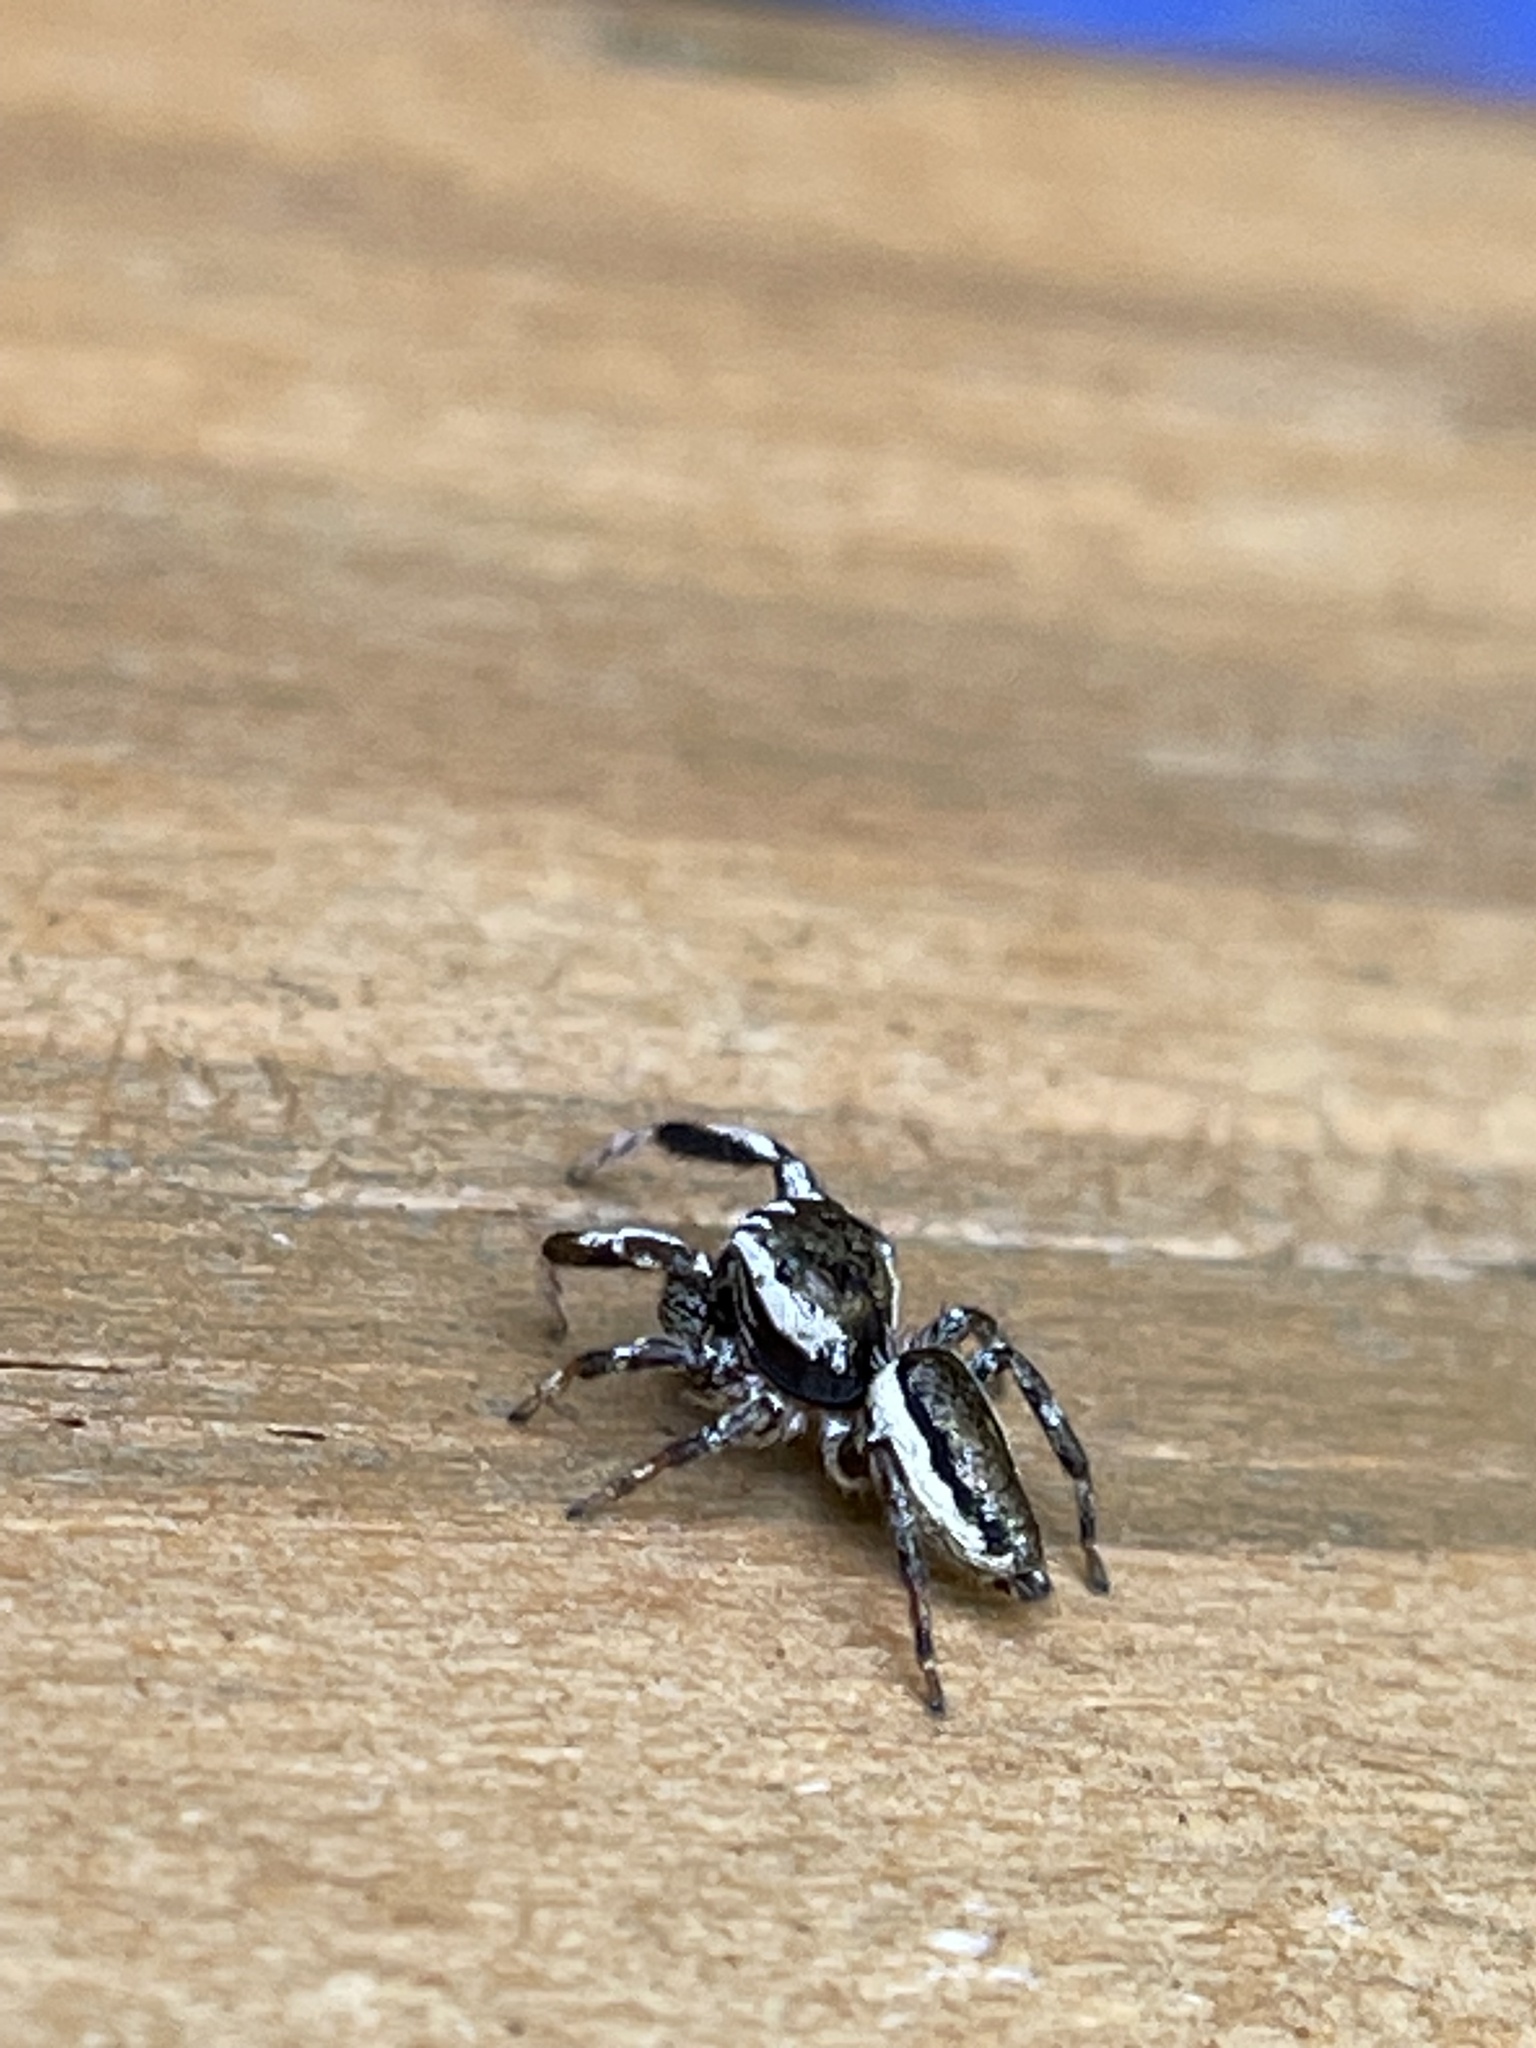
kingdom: Animalia
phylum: Arthropoda
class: Arachnida
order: Araneae
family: Salticidae
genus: Pelegrina
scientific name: Pelegrina exigua
